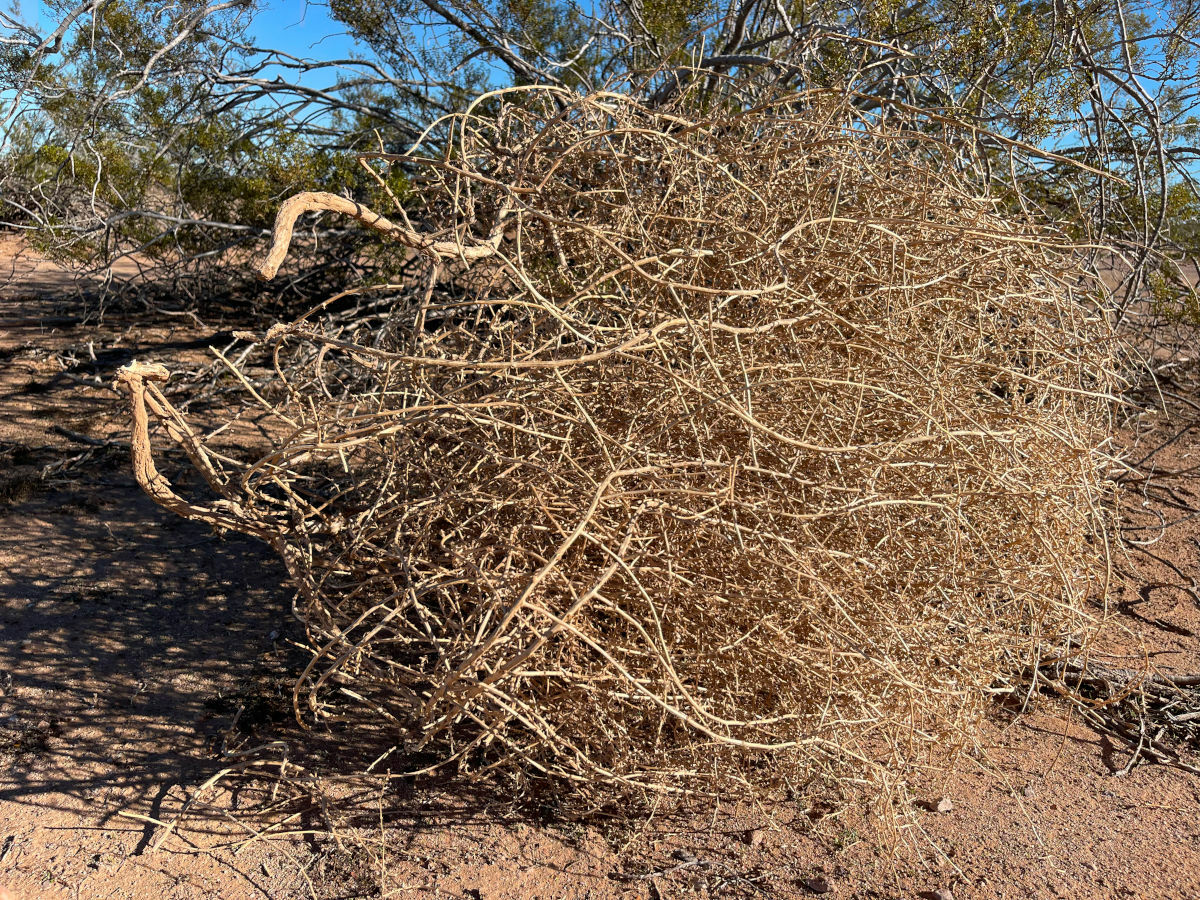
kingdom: Plantae
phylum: Tracheophyta
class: Magnoliopsida
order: Caryophyllales
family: Amaranthaceae
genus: Salsola
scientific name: Salsola tragus
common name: Prickly russian thistle
